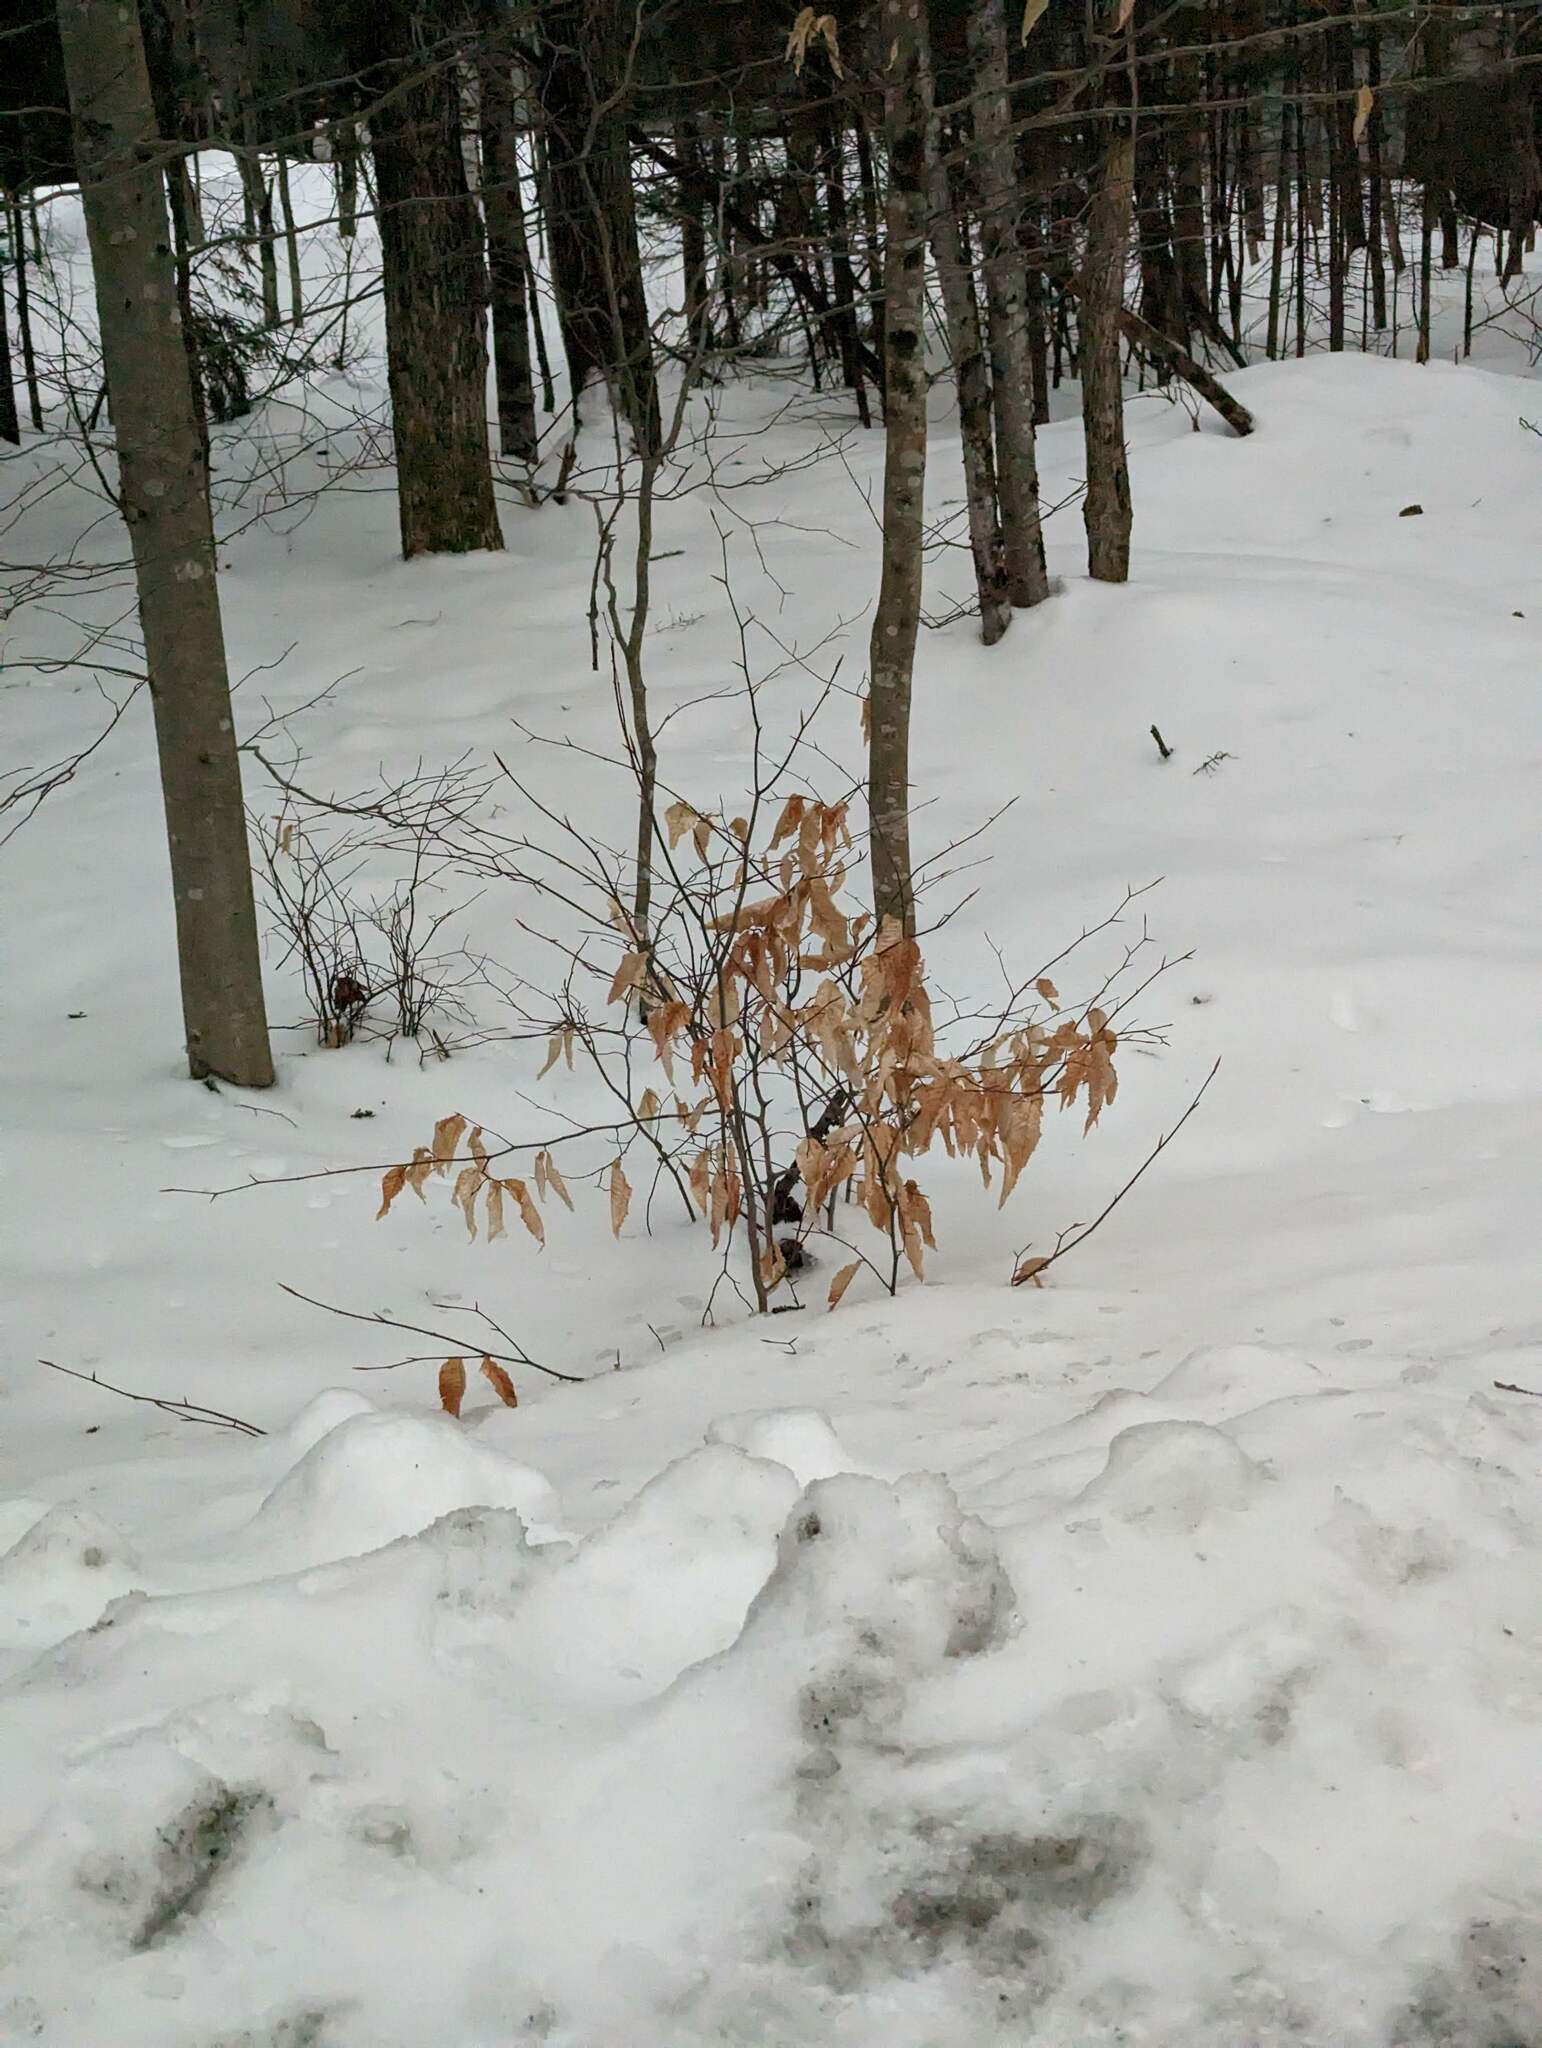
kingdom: Plantae
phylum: Tracheophyta
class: Magnoliopsida
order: Fagales
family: Fagaceae
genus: Fagus
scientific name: Fagus grandifolia
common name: American beech
